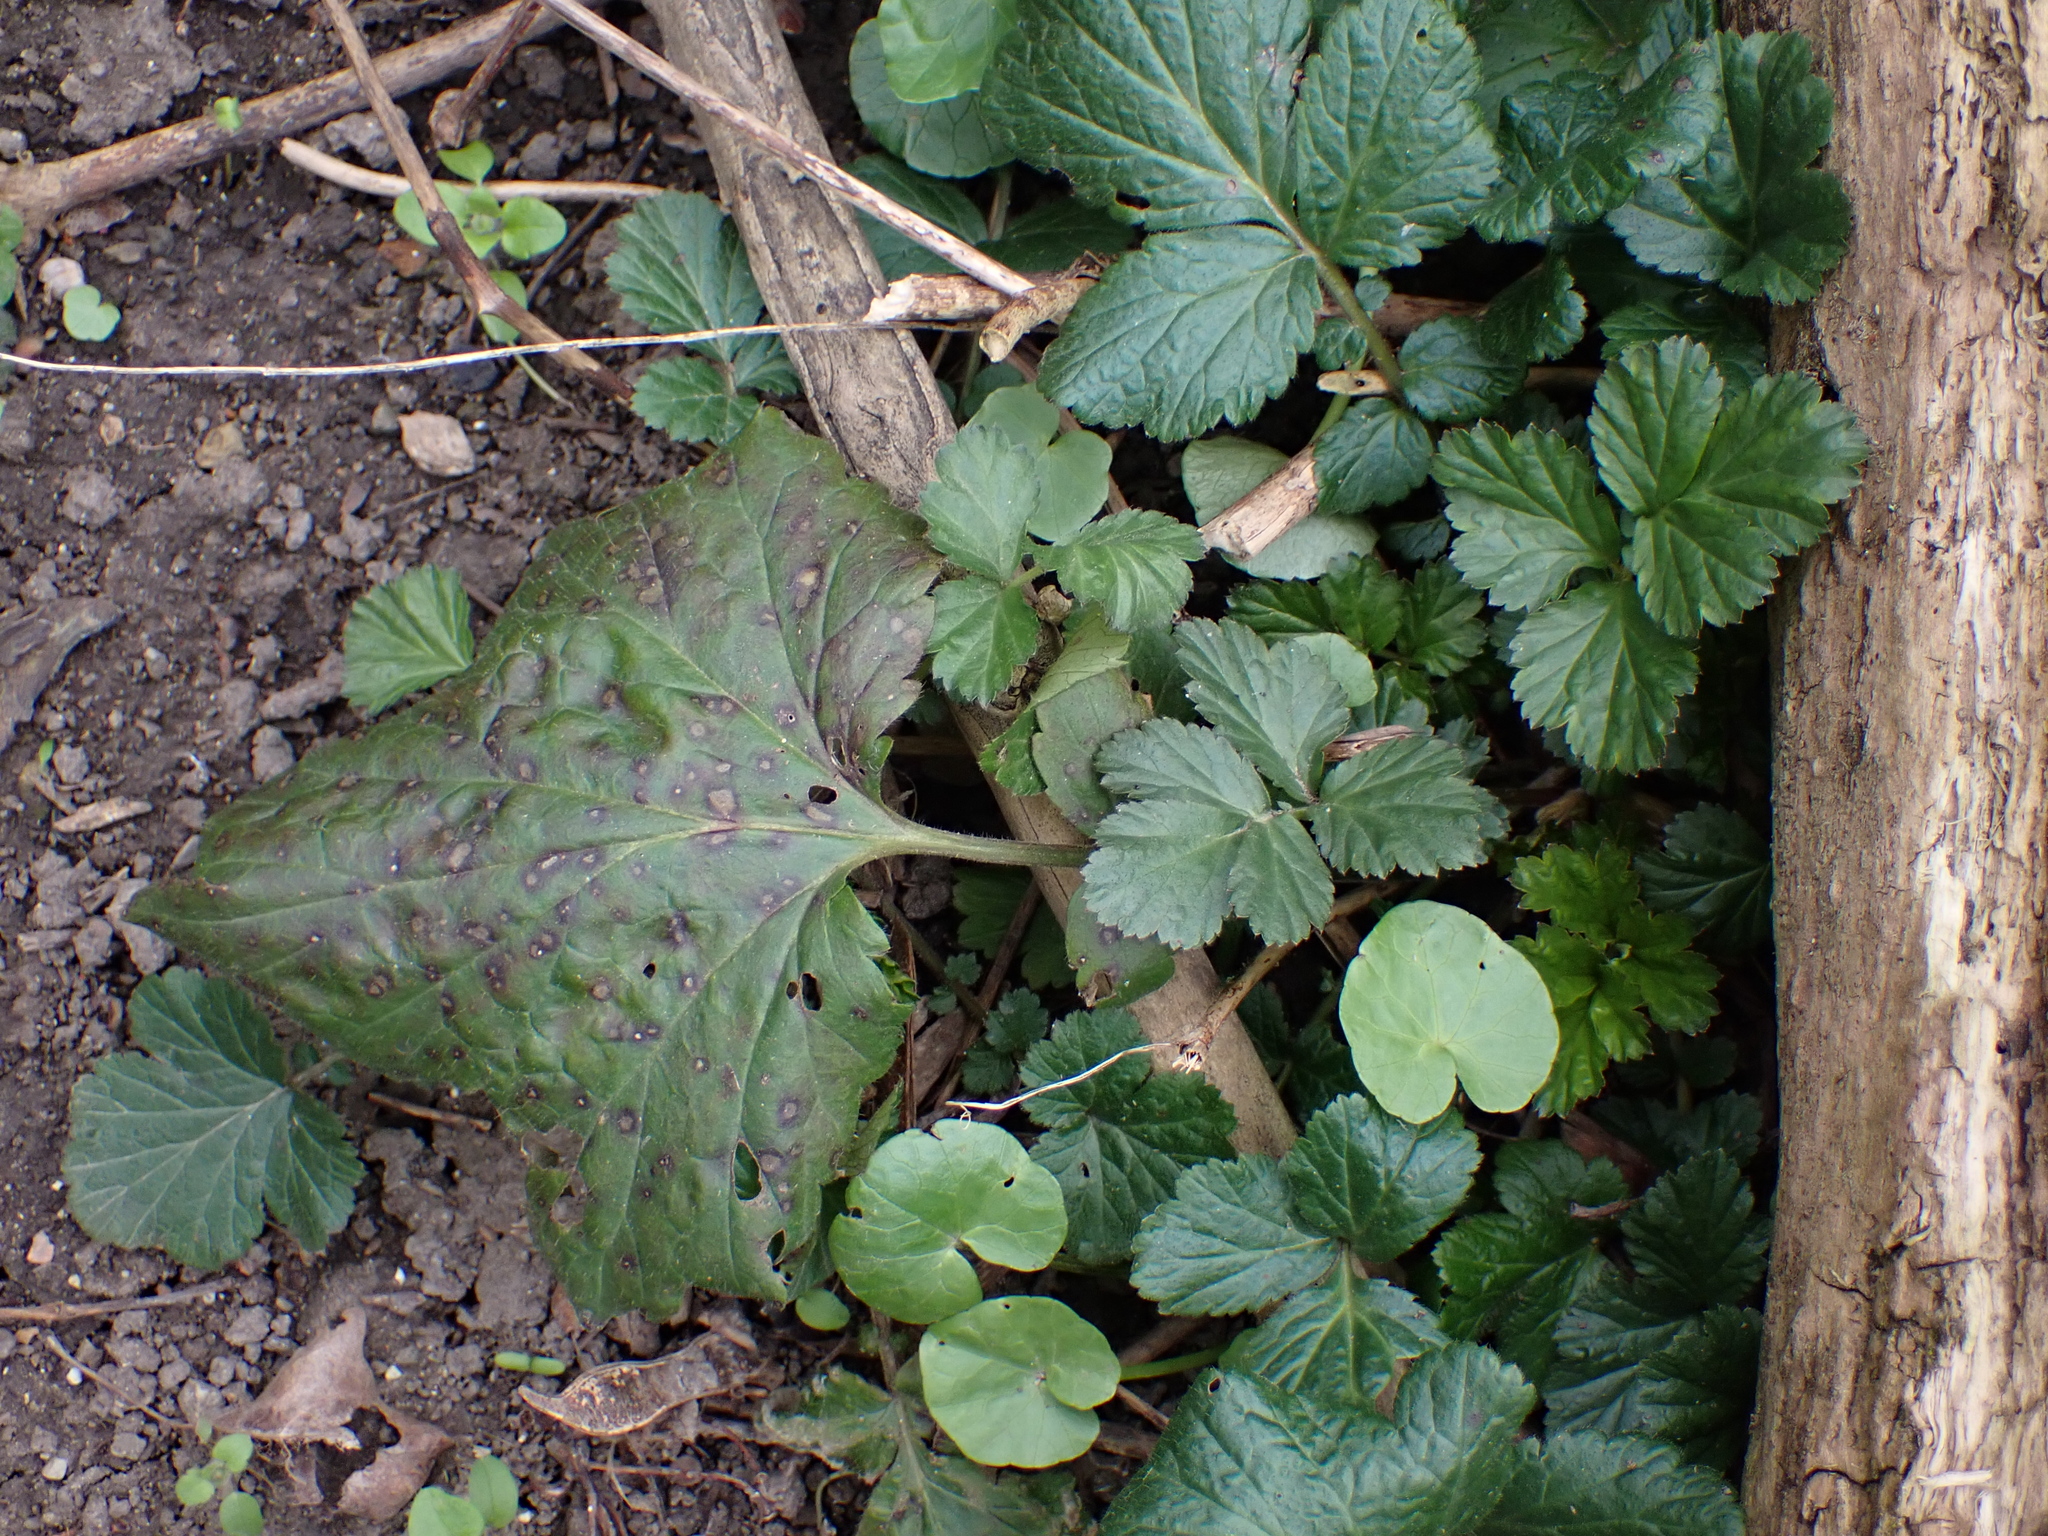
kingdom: Plantae
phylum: Tracheophyta
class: Magnoliopsida
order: Rosales
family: Rosaceae
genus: Geum
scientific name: Geum urbanum
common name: Wood avens
